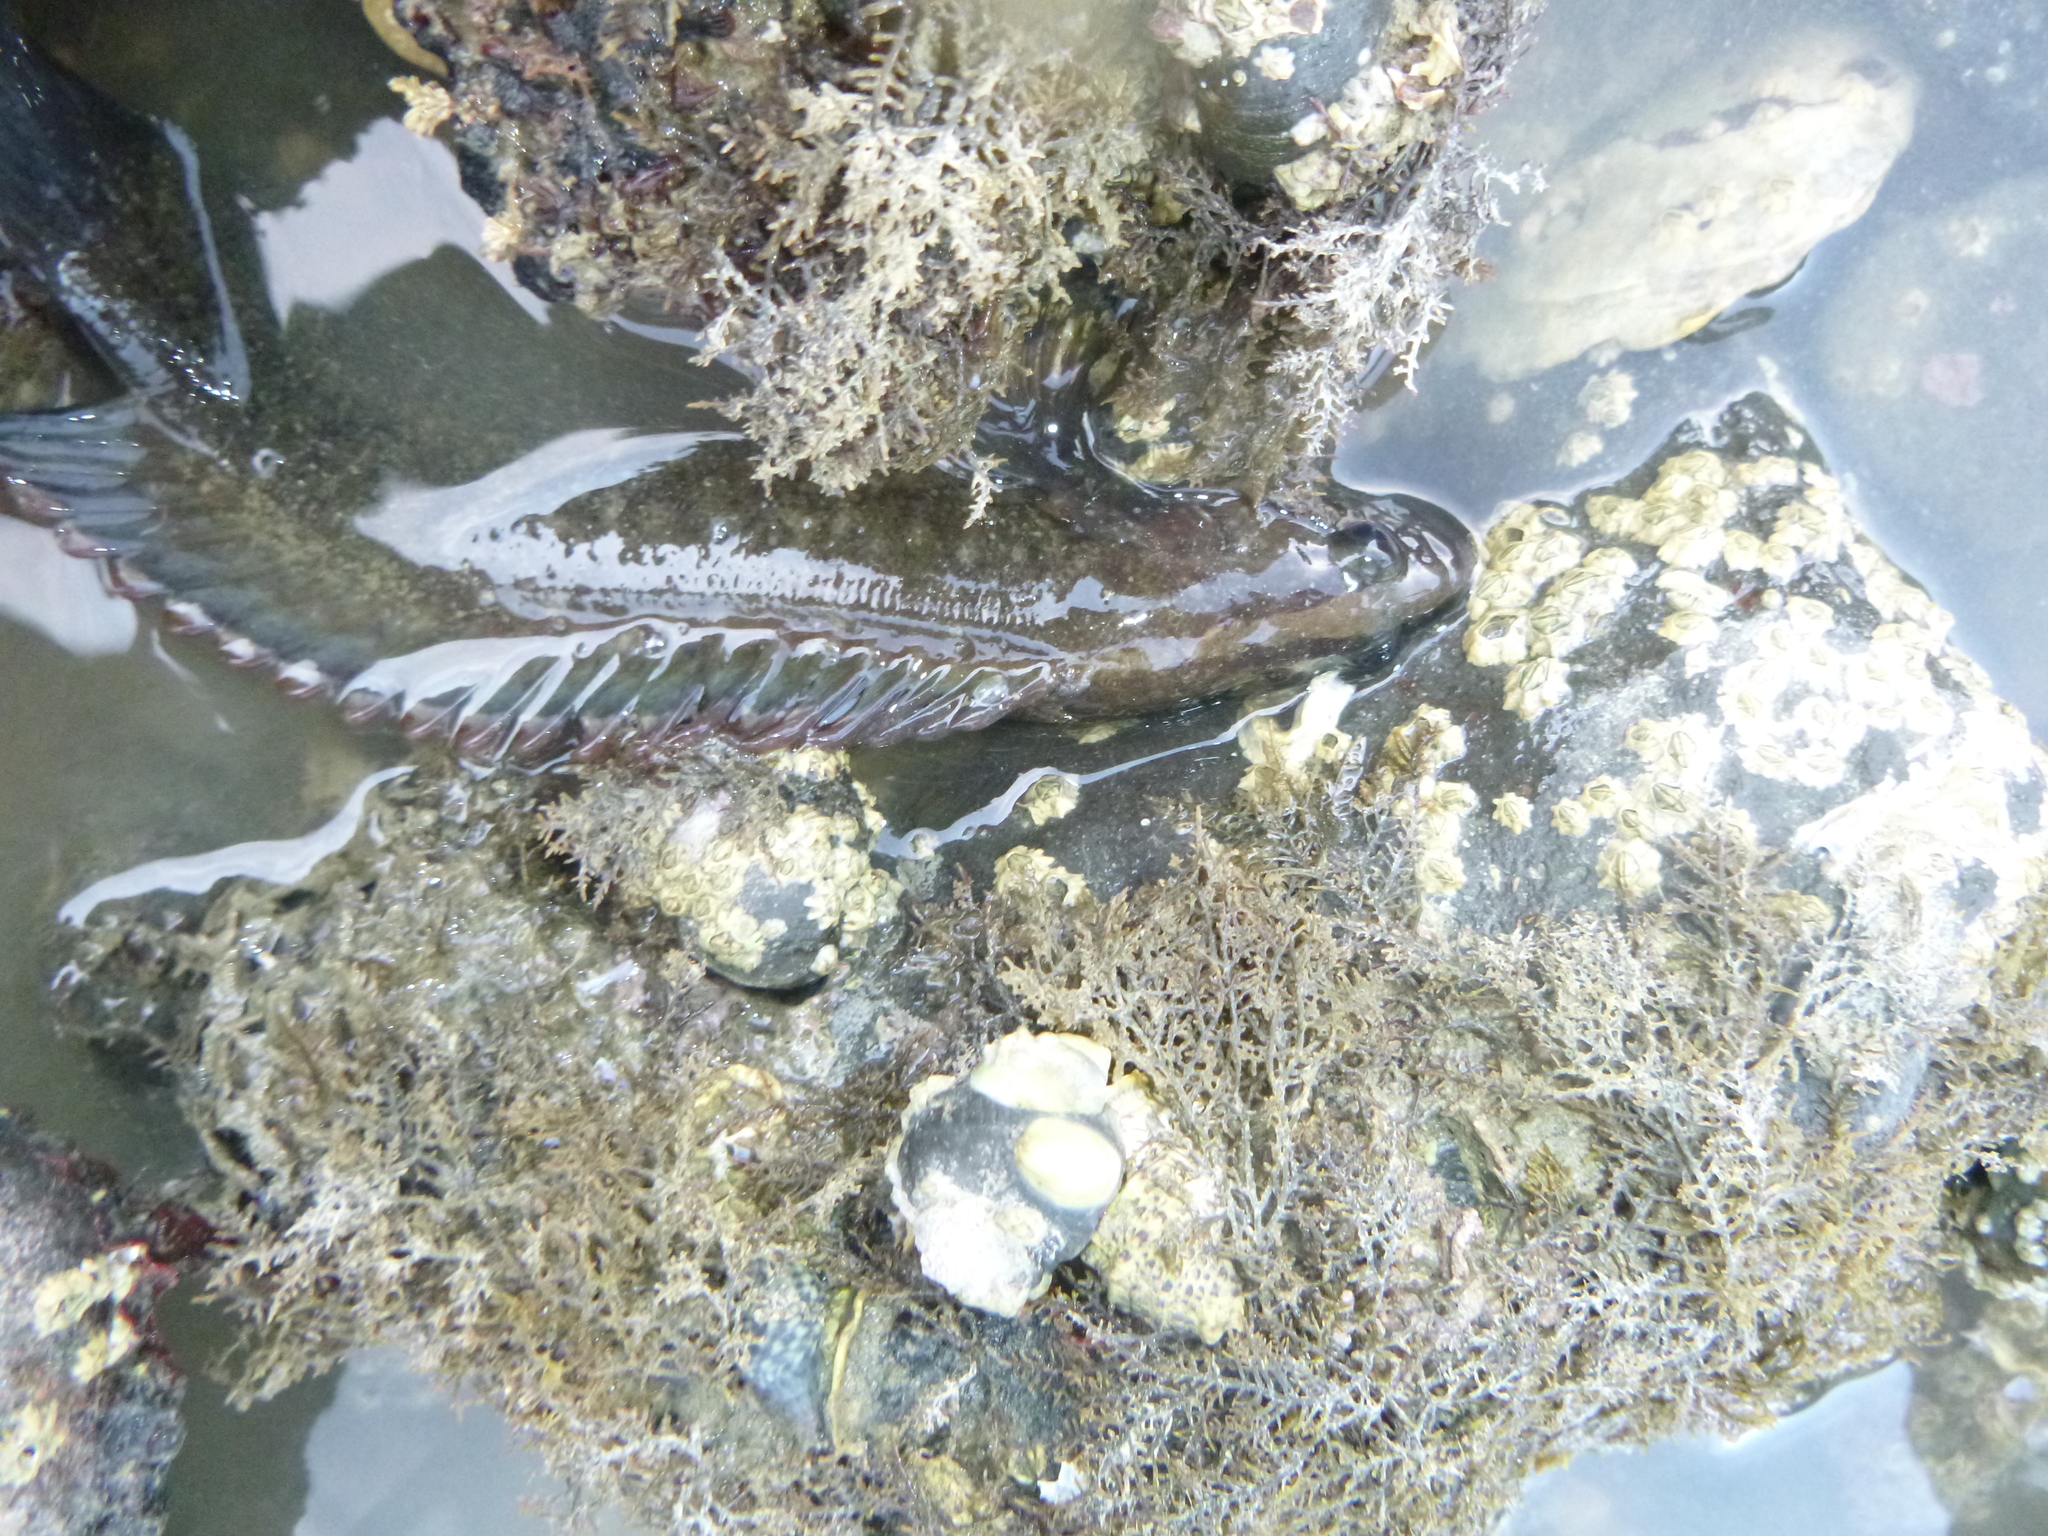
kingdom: Animalia
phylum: Chordata
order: Perciformes
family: Plesiopidae
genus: Acanthoclinus
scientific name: Acanthoclinus fuscus
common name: Olive rockfish
